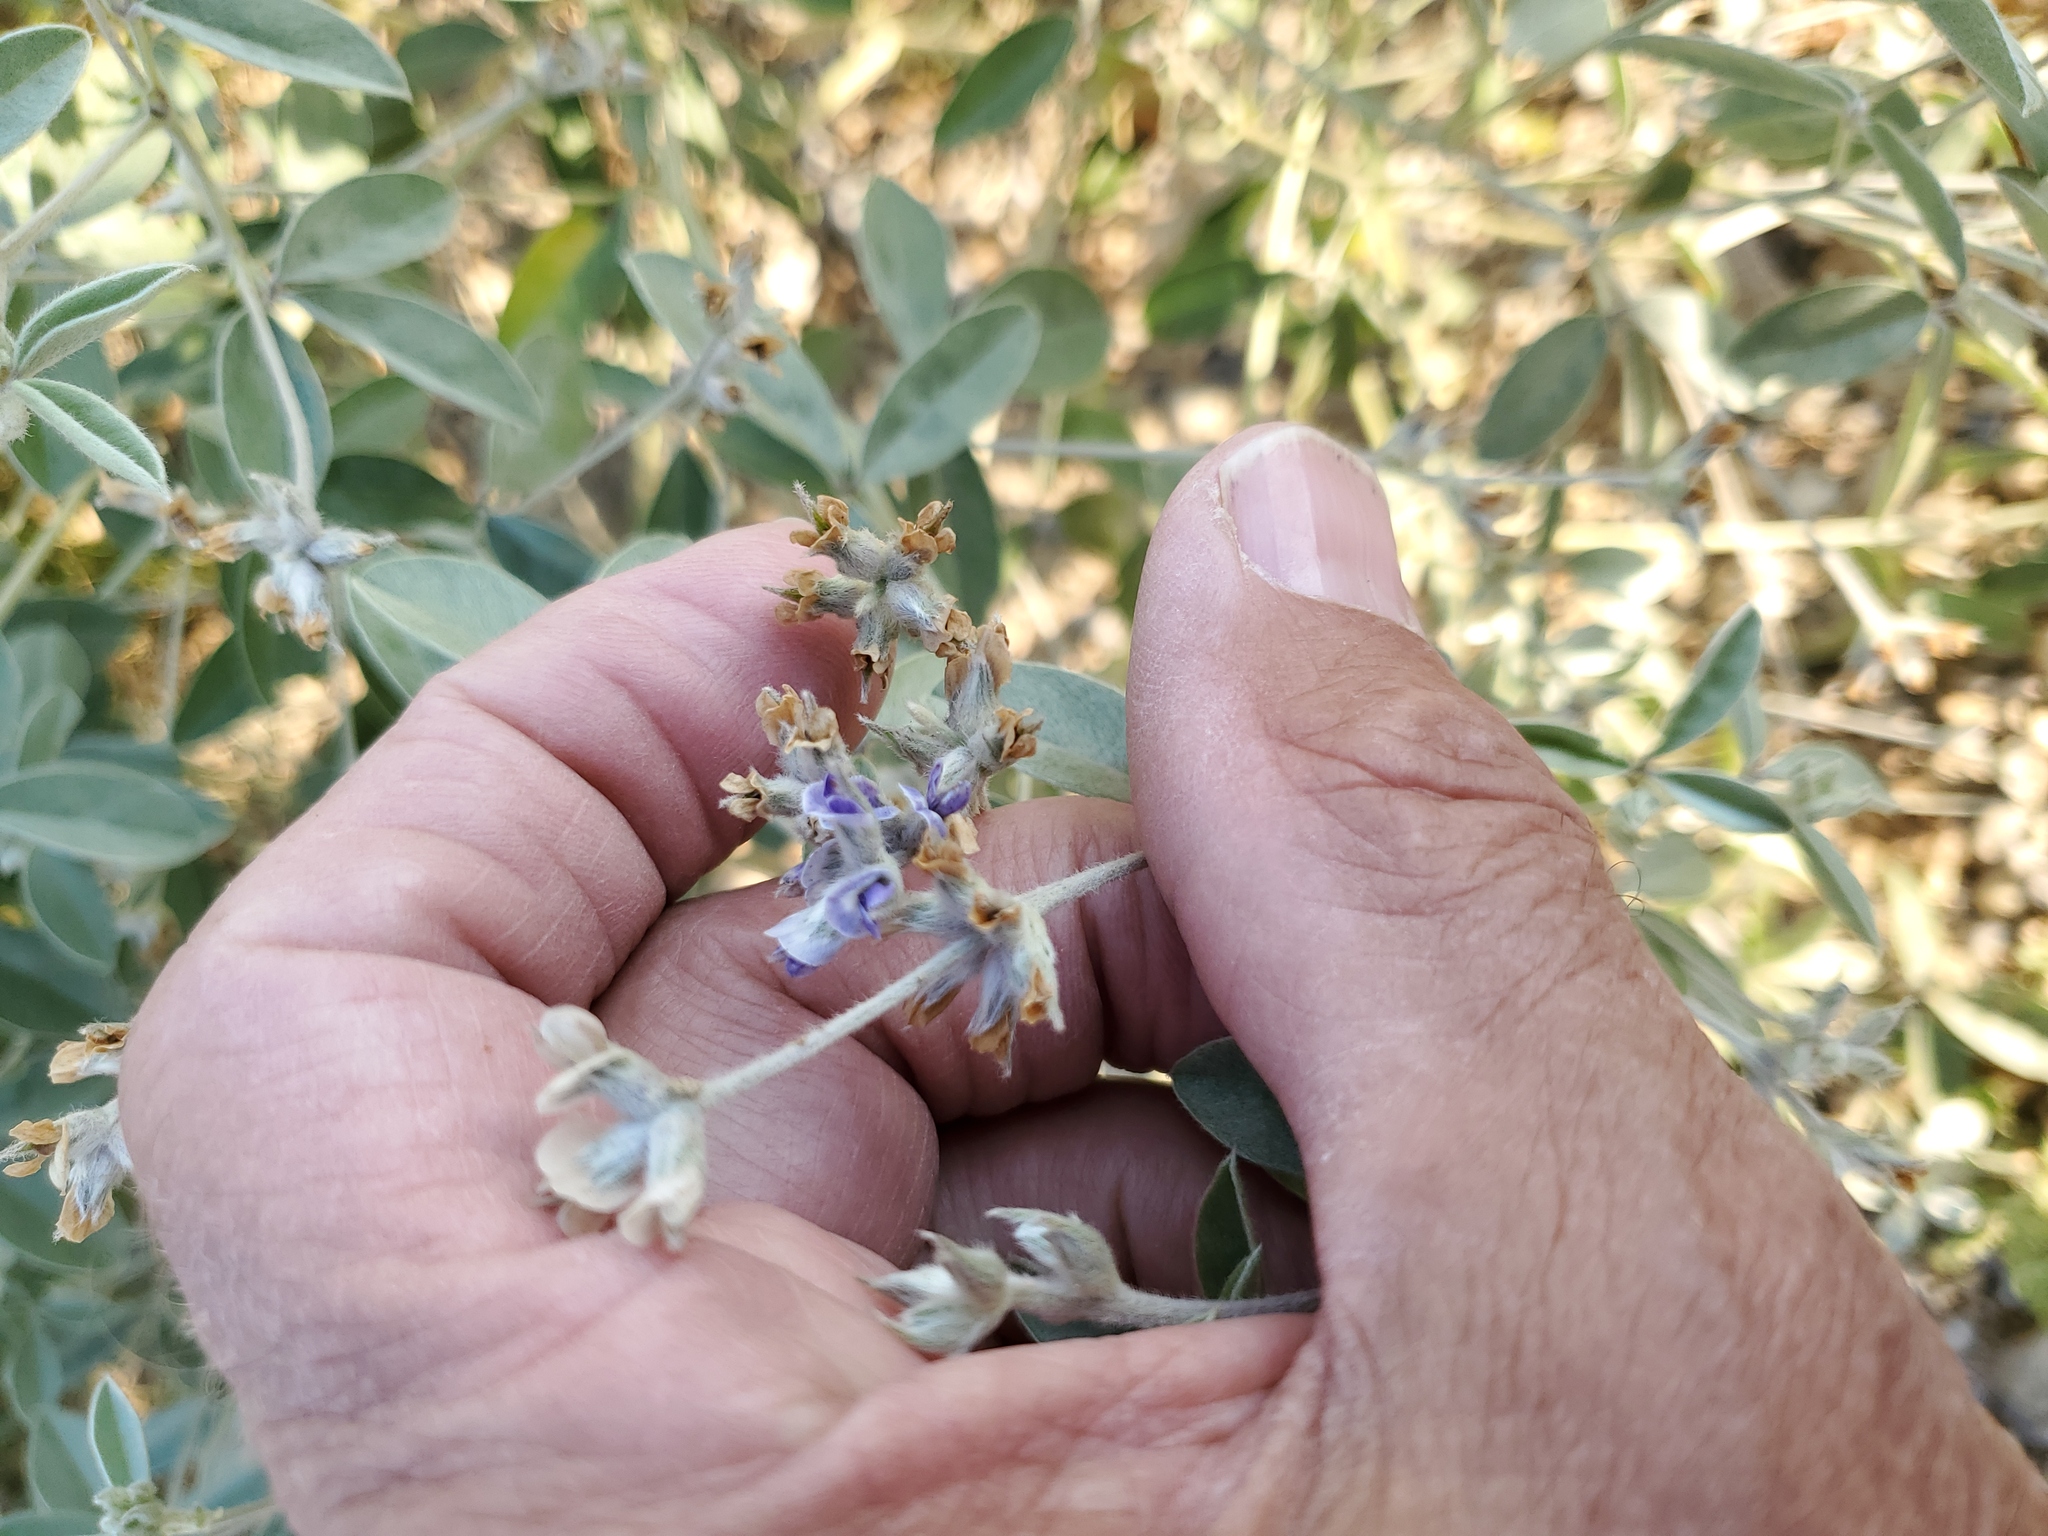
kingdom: Plantae
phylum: Tracheophyta
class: Magnoliopsida
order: Fabales
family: Fabaceae
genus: Pediomelum
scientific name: Pediomelum argophyllum
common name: Silver-leaved indian breadroot
